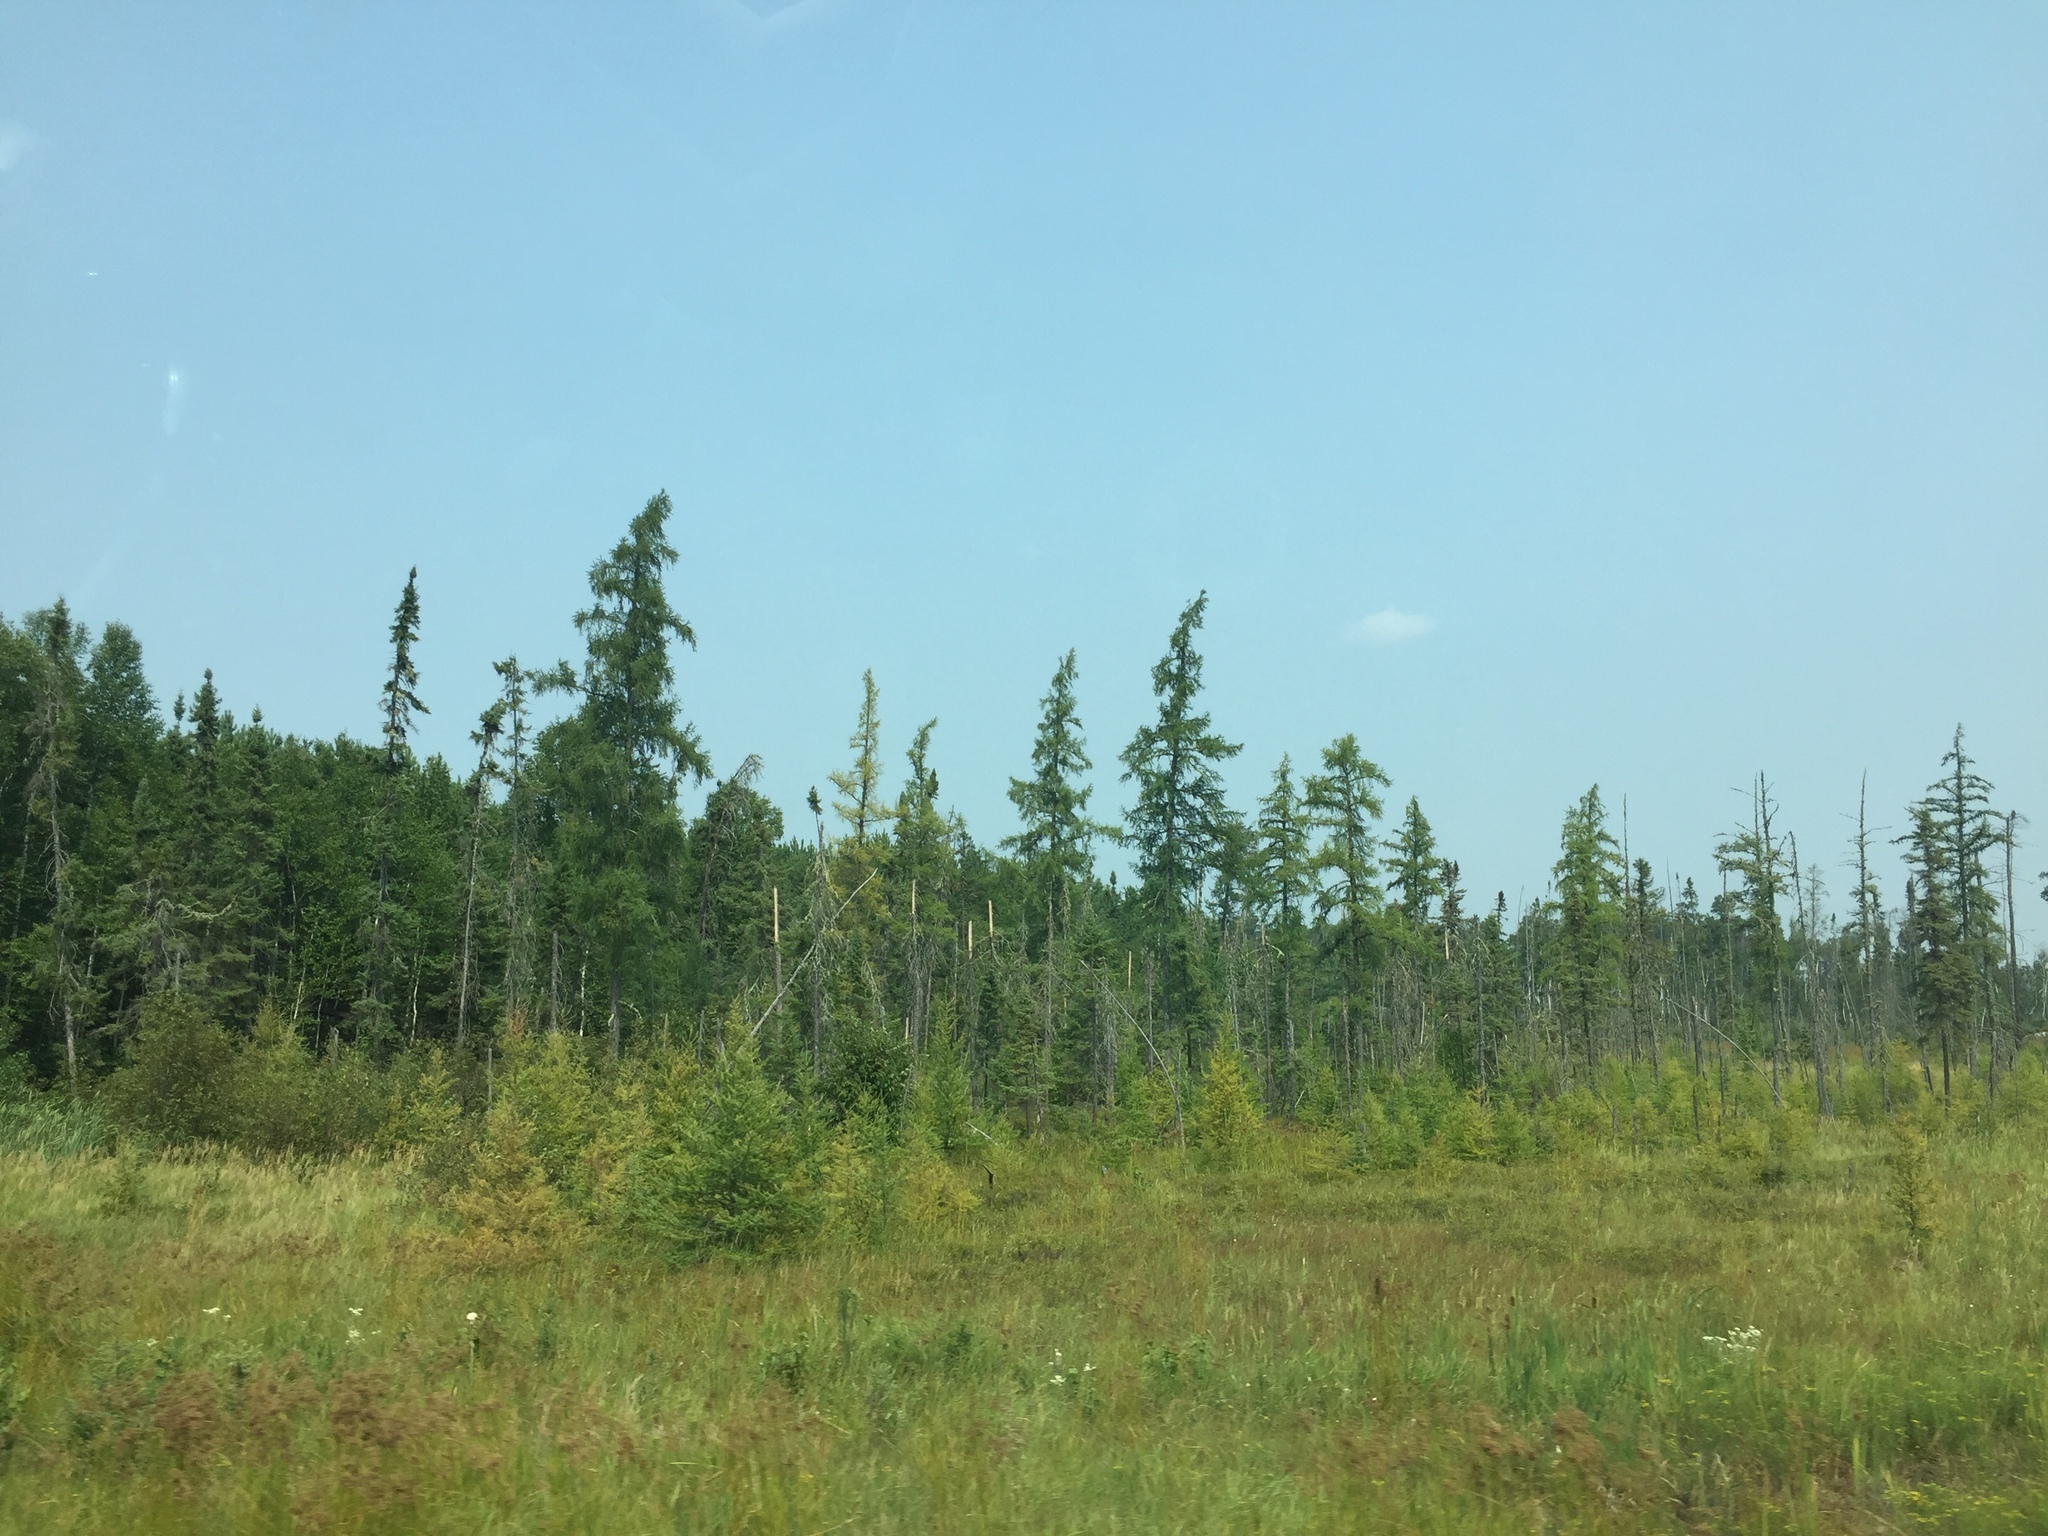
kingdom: Plantae
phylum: Tracheophyta
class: Pinopsida
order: Pinales
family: Pinaceae
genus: Larix
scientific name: Larix laricina
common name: American larch
